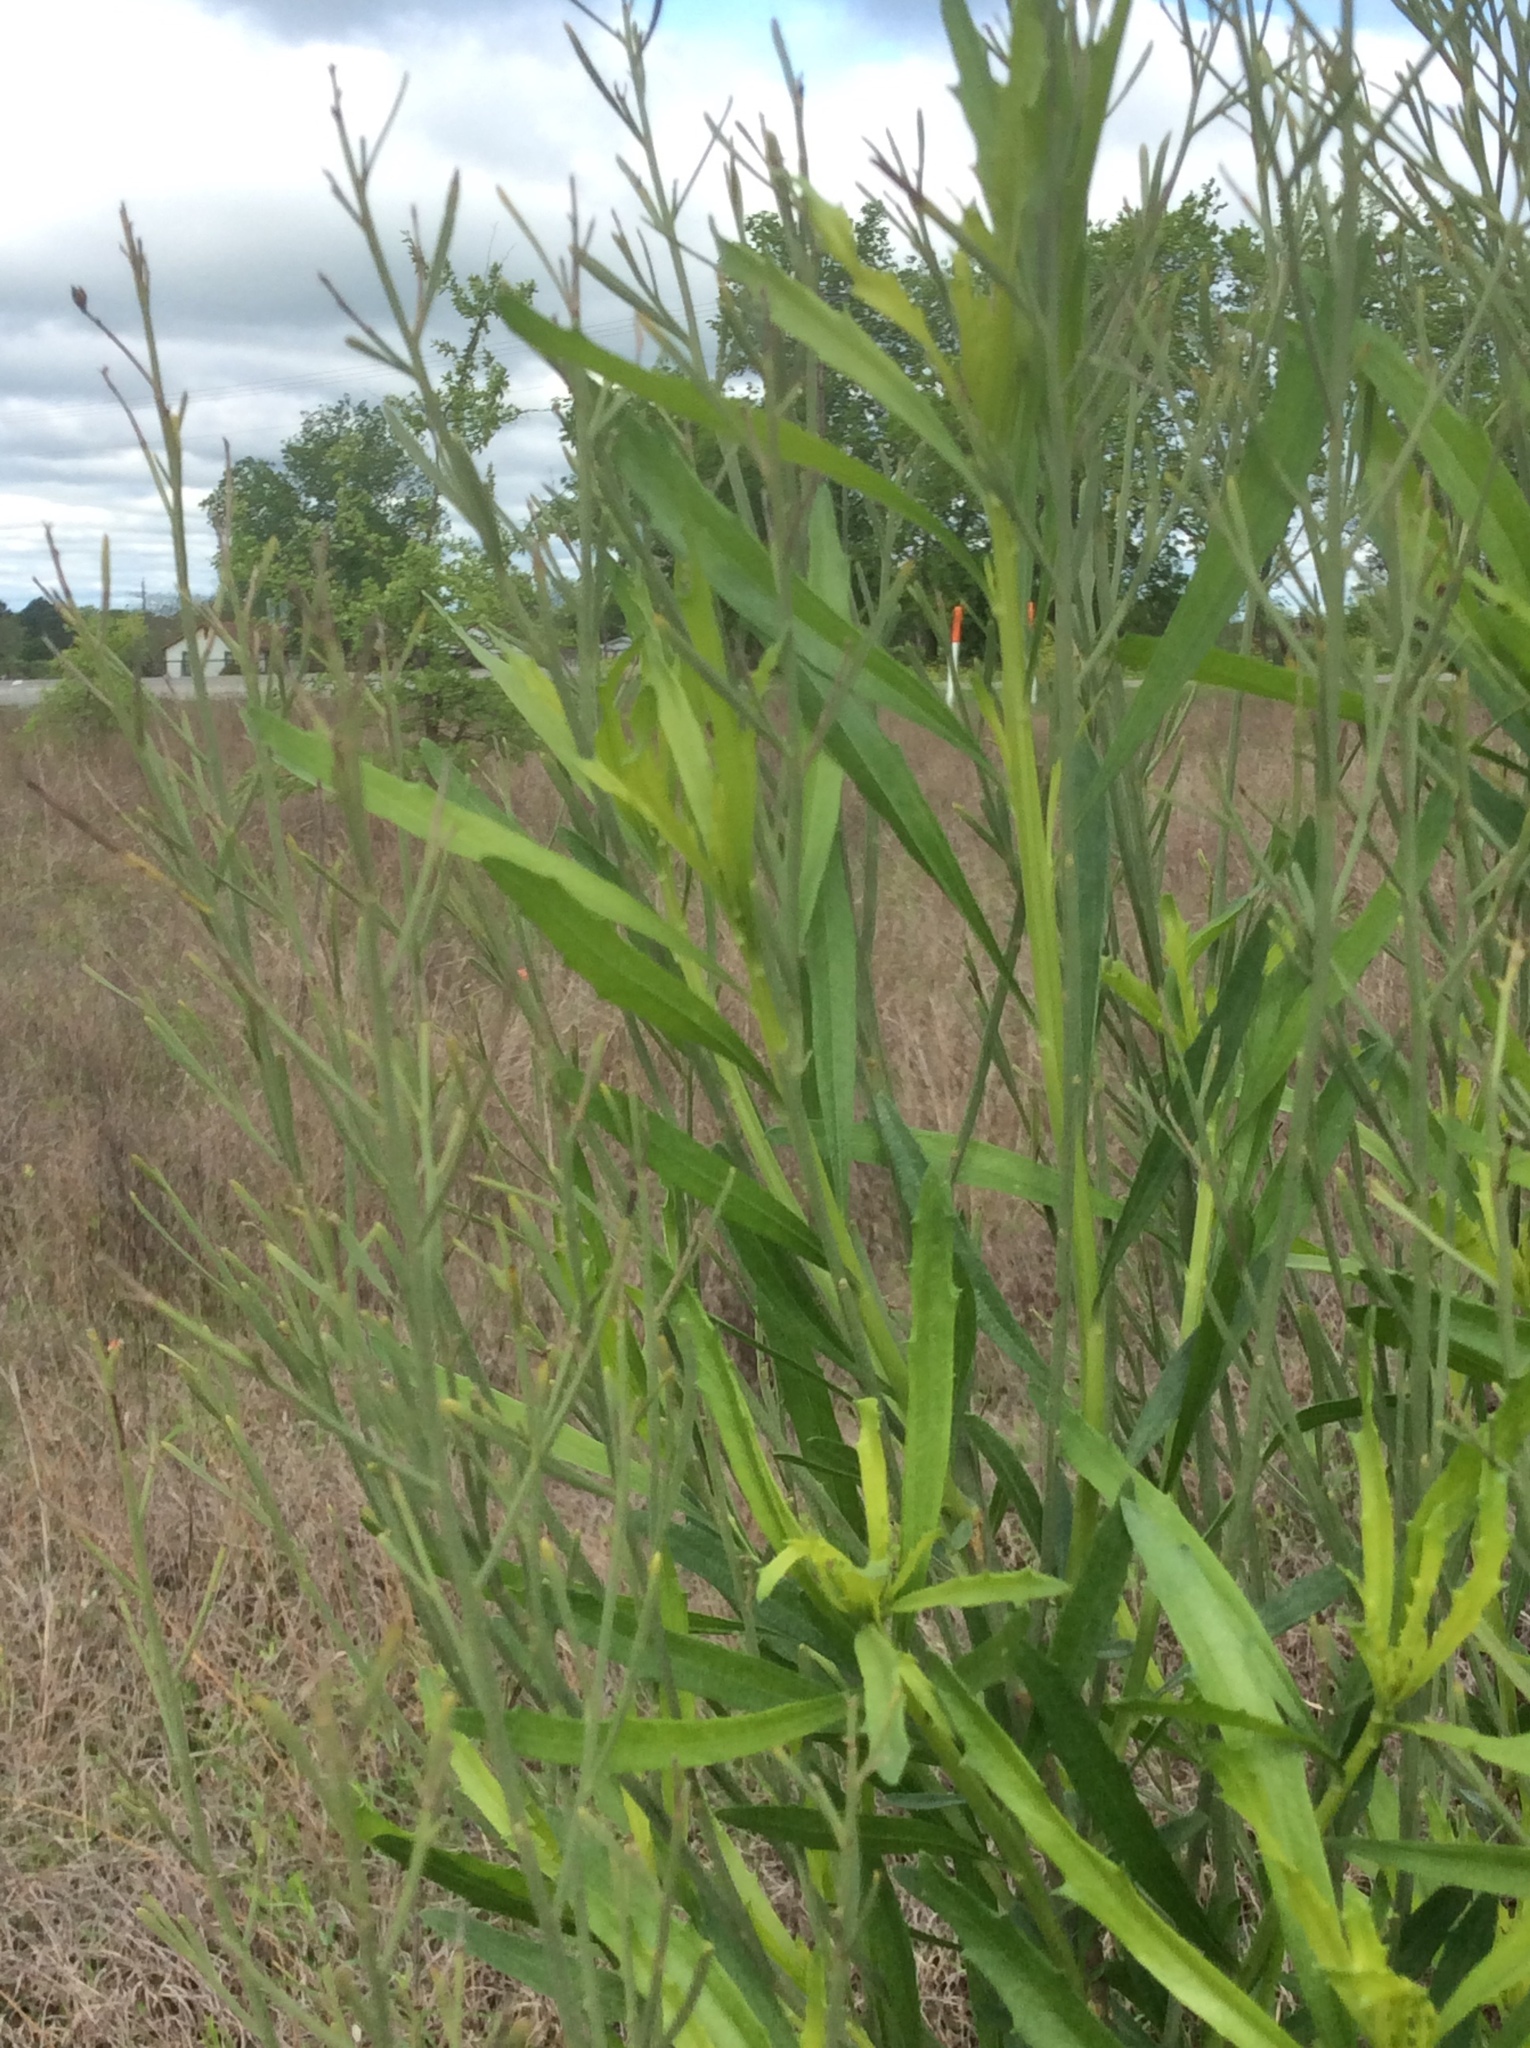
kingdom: Plantae
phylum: Tracheophyta
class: Magnoliopsida
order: Asterales
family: Asteraceae
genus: Baccharis
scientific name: Baccharis neglecta
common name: Roosevelt-weed
